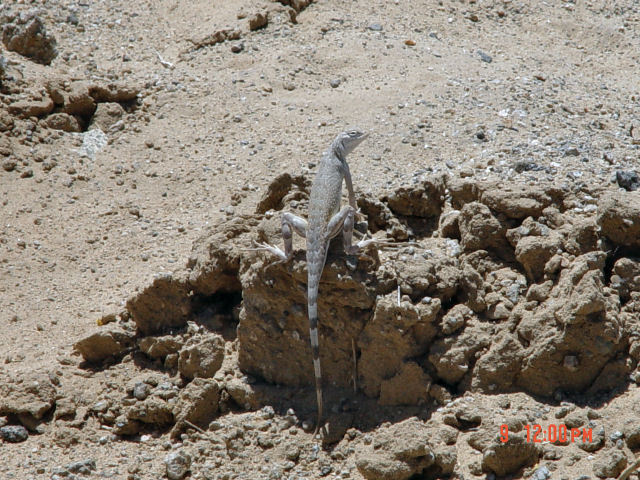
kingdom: Animalia
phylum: Chordata
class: Squamata
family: Phrynosomatidae
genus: Callisaurus
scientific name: Callisaurus draconoides
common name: Zebra-tailed lizard
